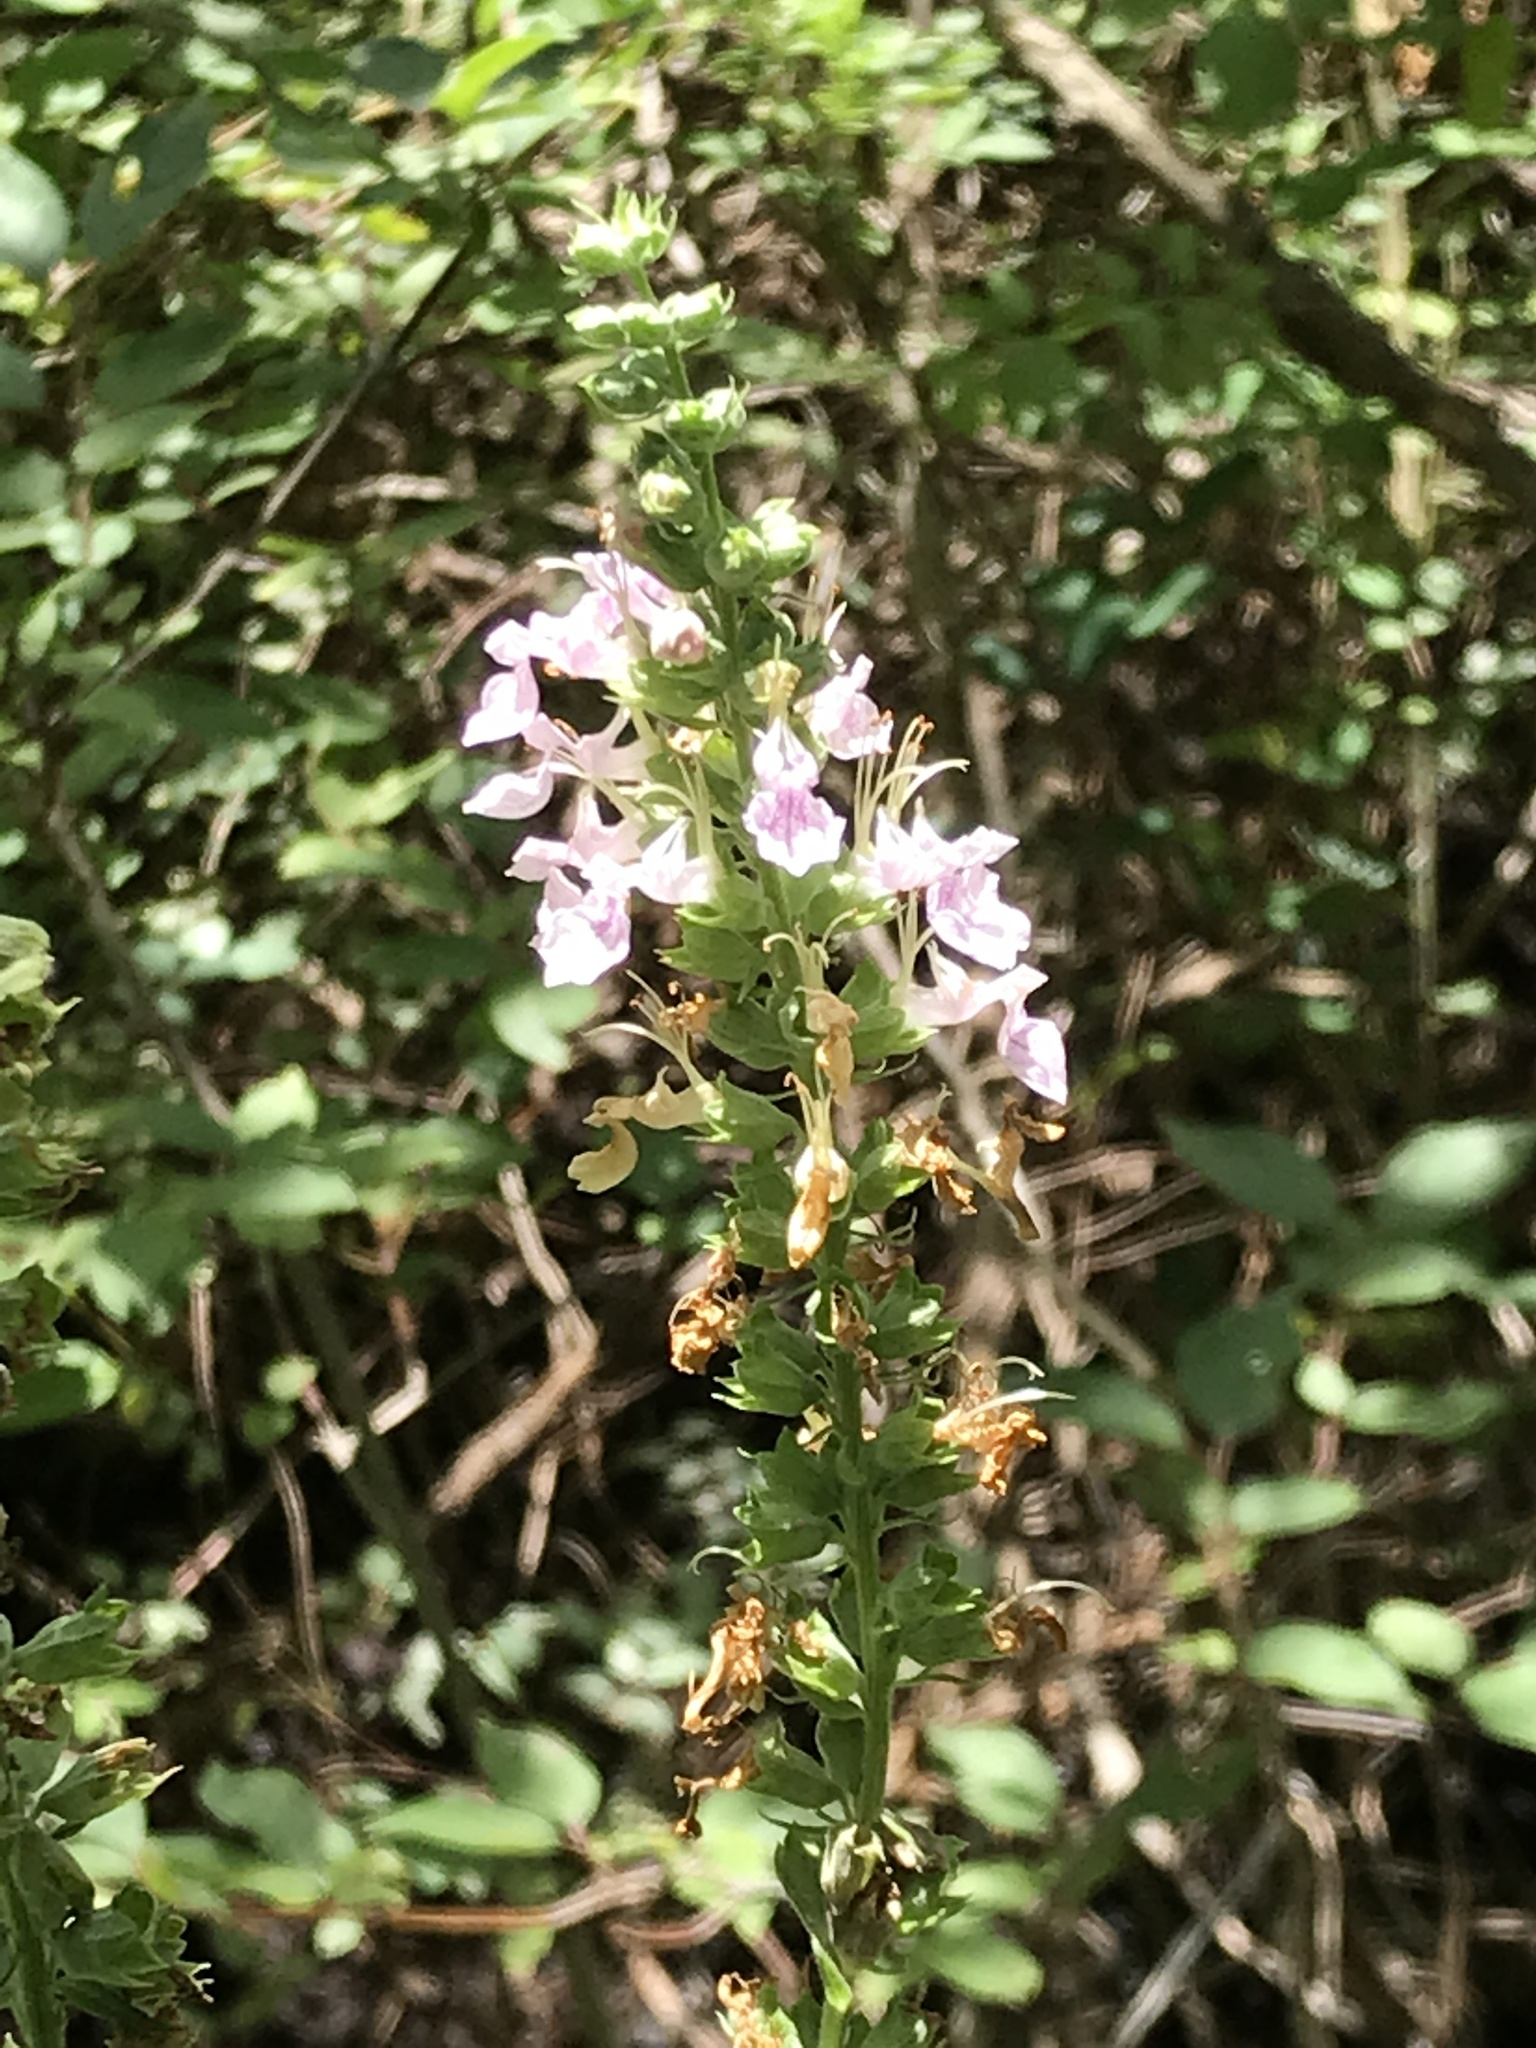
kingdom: Plantae
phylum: Tracheophyta
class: Magnoliopsida
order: Lamiales
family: Lamiaceae
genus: Teucrium
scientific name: Teucrium canadense
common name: American germander
